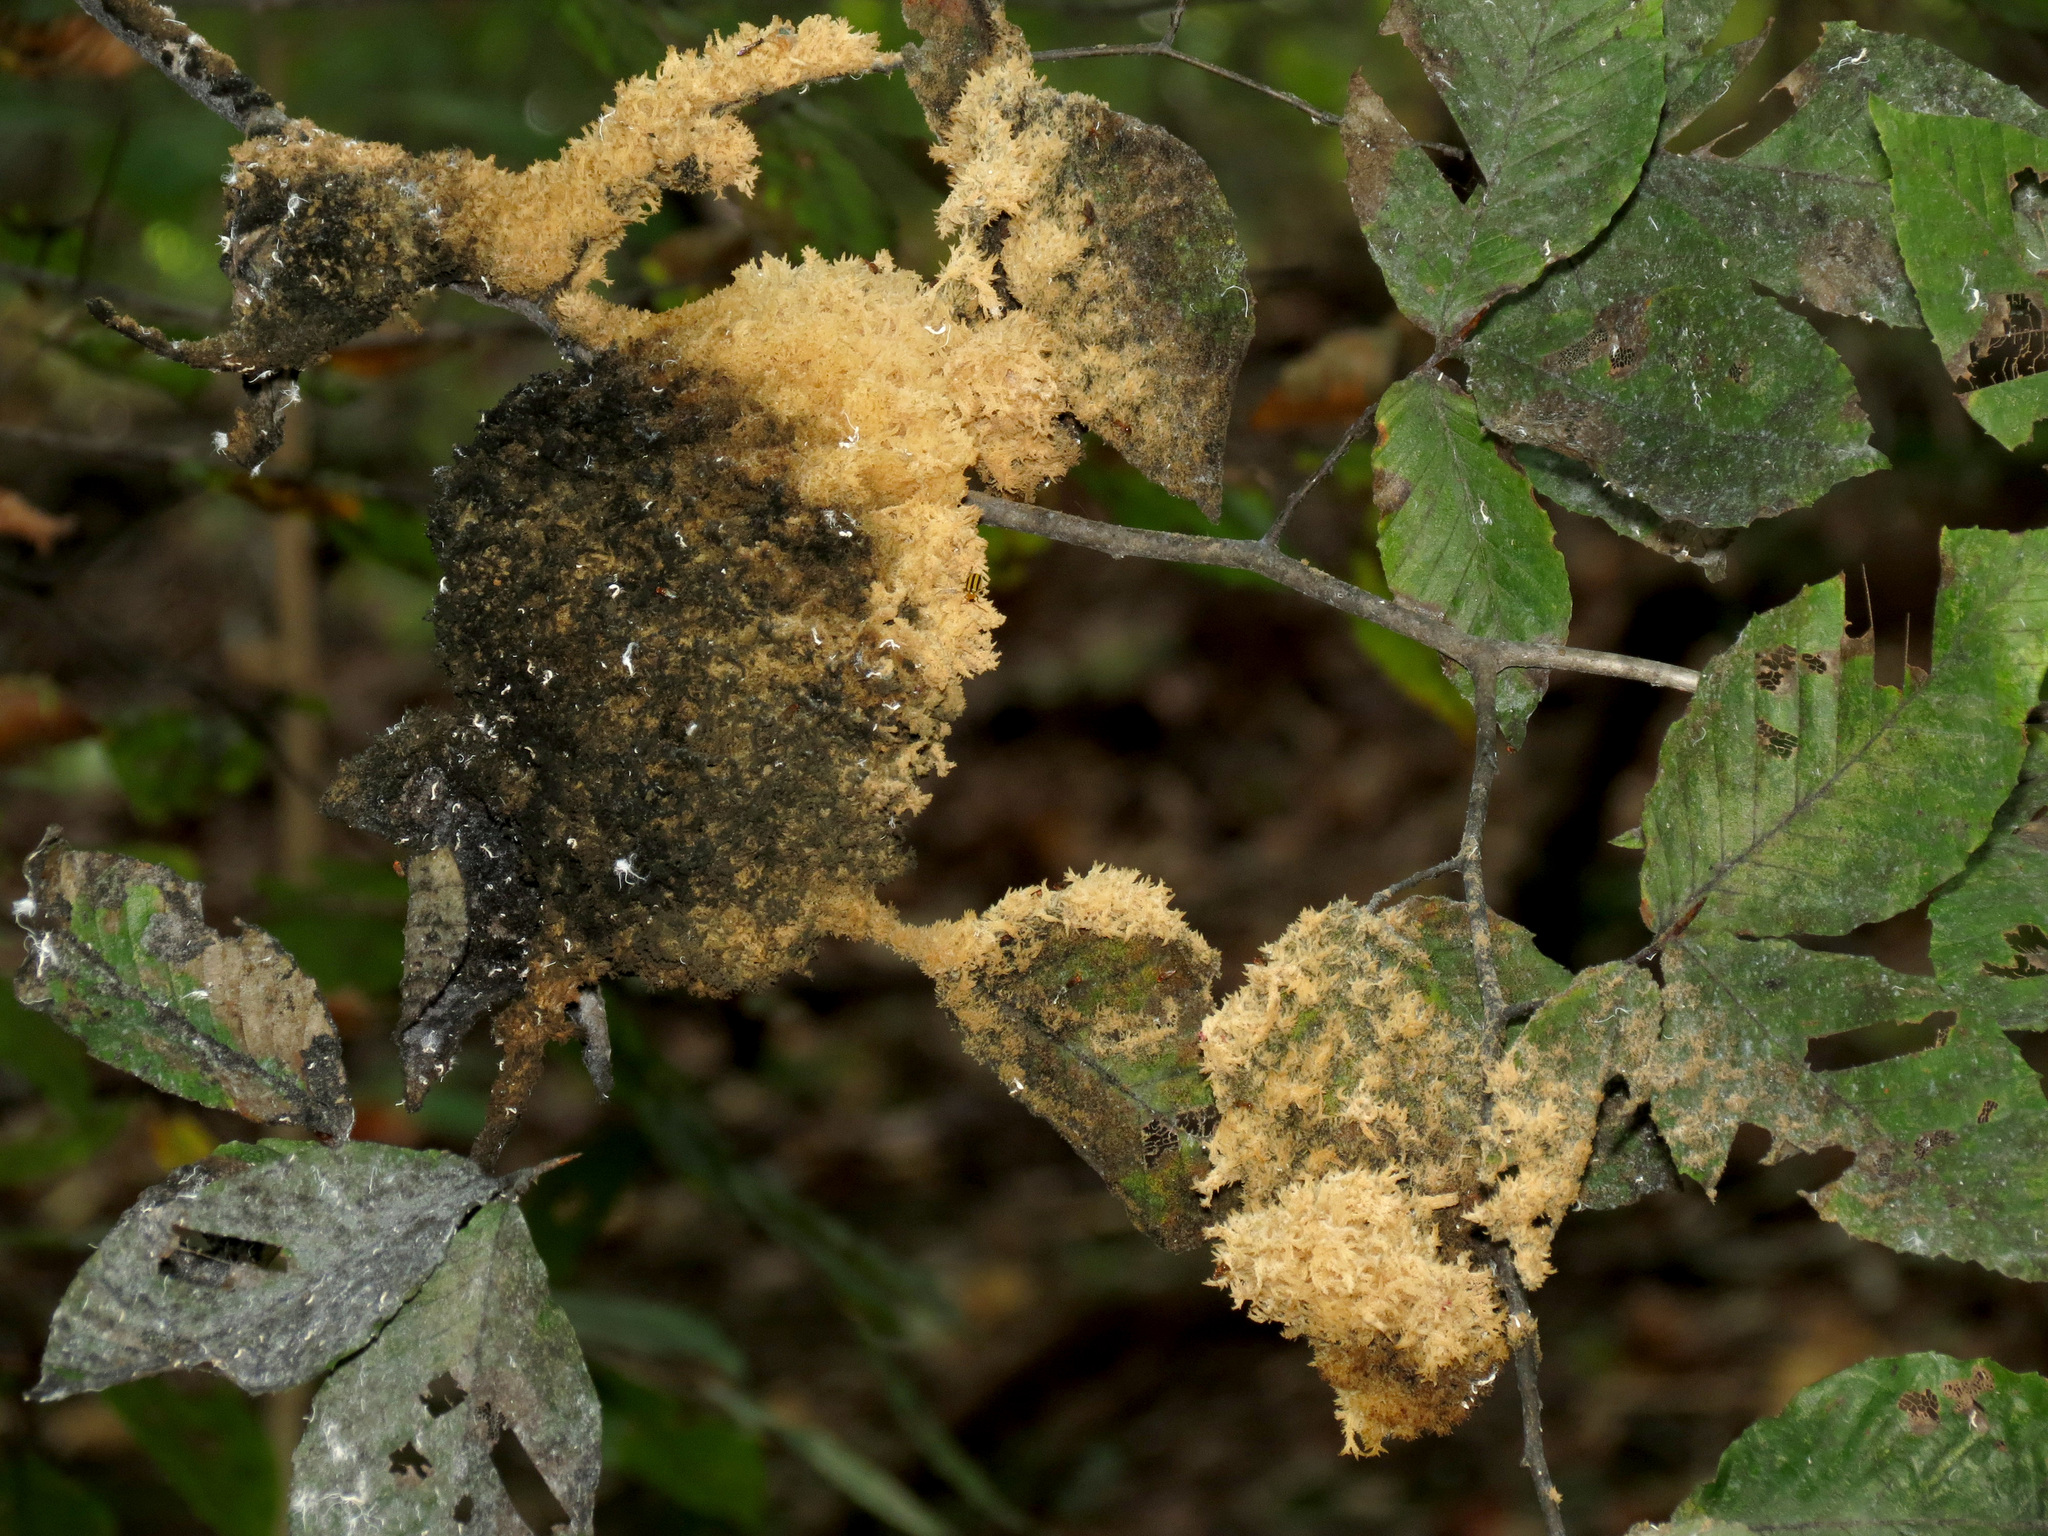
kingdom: Fungi
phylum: Ascomycota
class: Dothideomycetes
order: Capnodiales
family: Capnodiaceae
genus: Scorias
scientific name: Scorias spongiosa
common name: Black sooty mold
